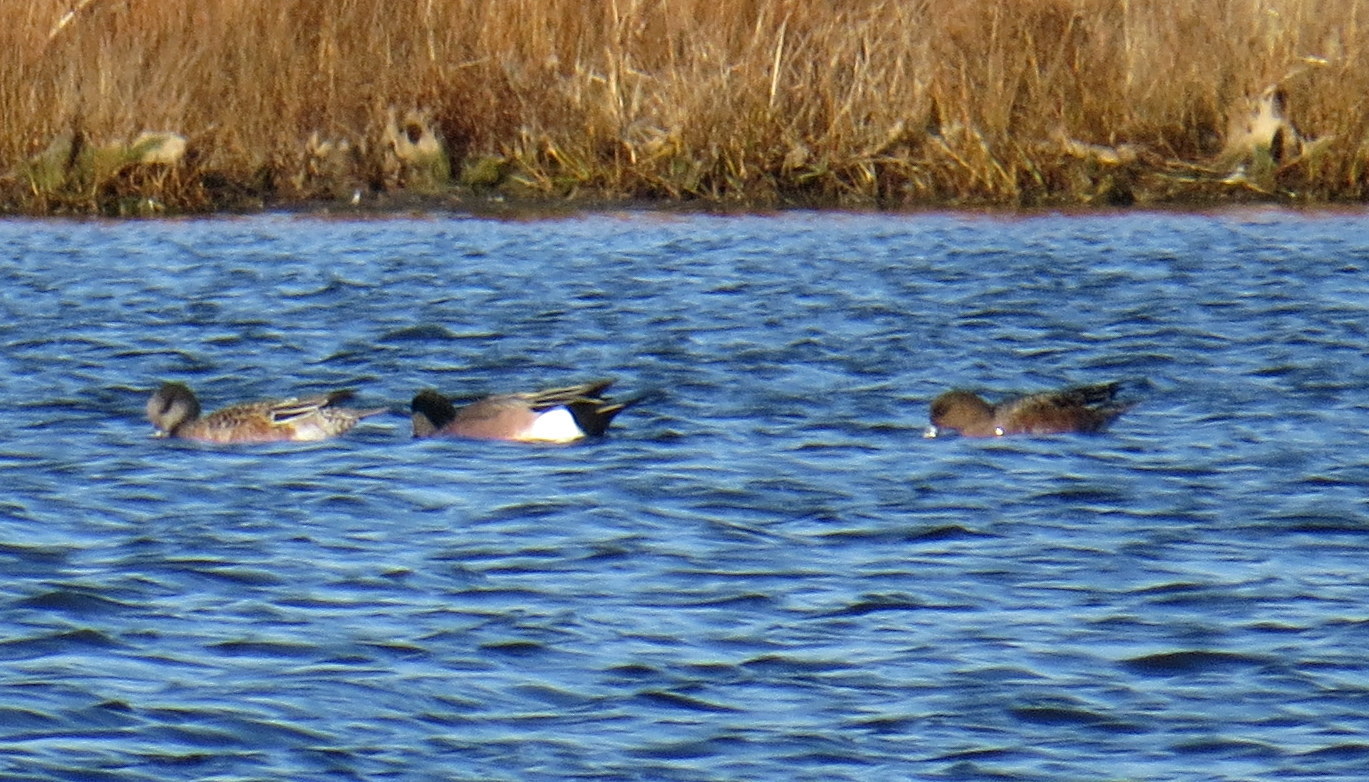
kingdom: Animalia
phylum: Chordata
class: Aves
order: Anseriformes
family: Anatidae
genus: Mareca
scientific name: Mareca penelope
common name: Eurasian wigeon
